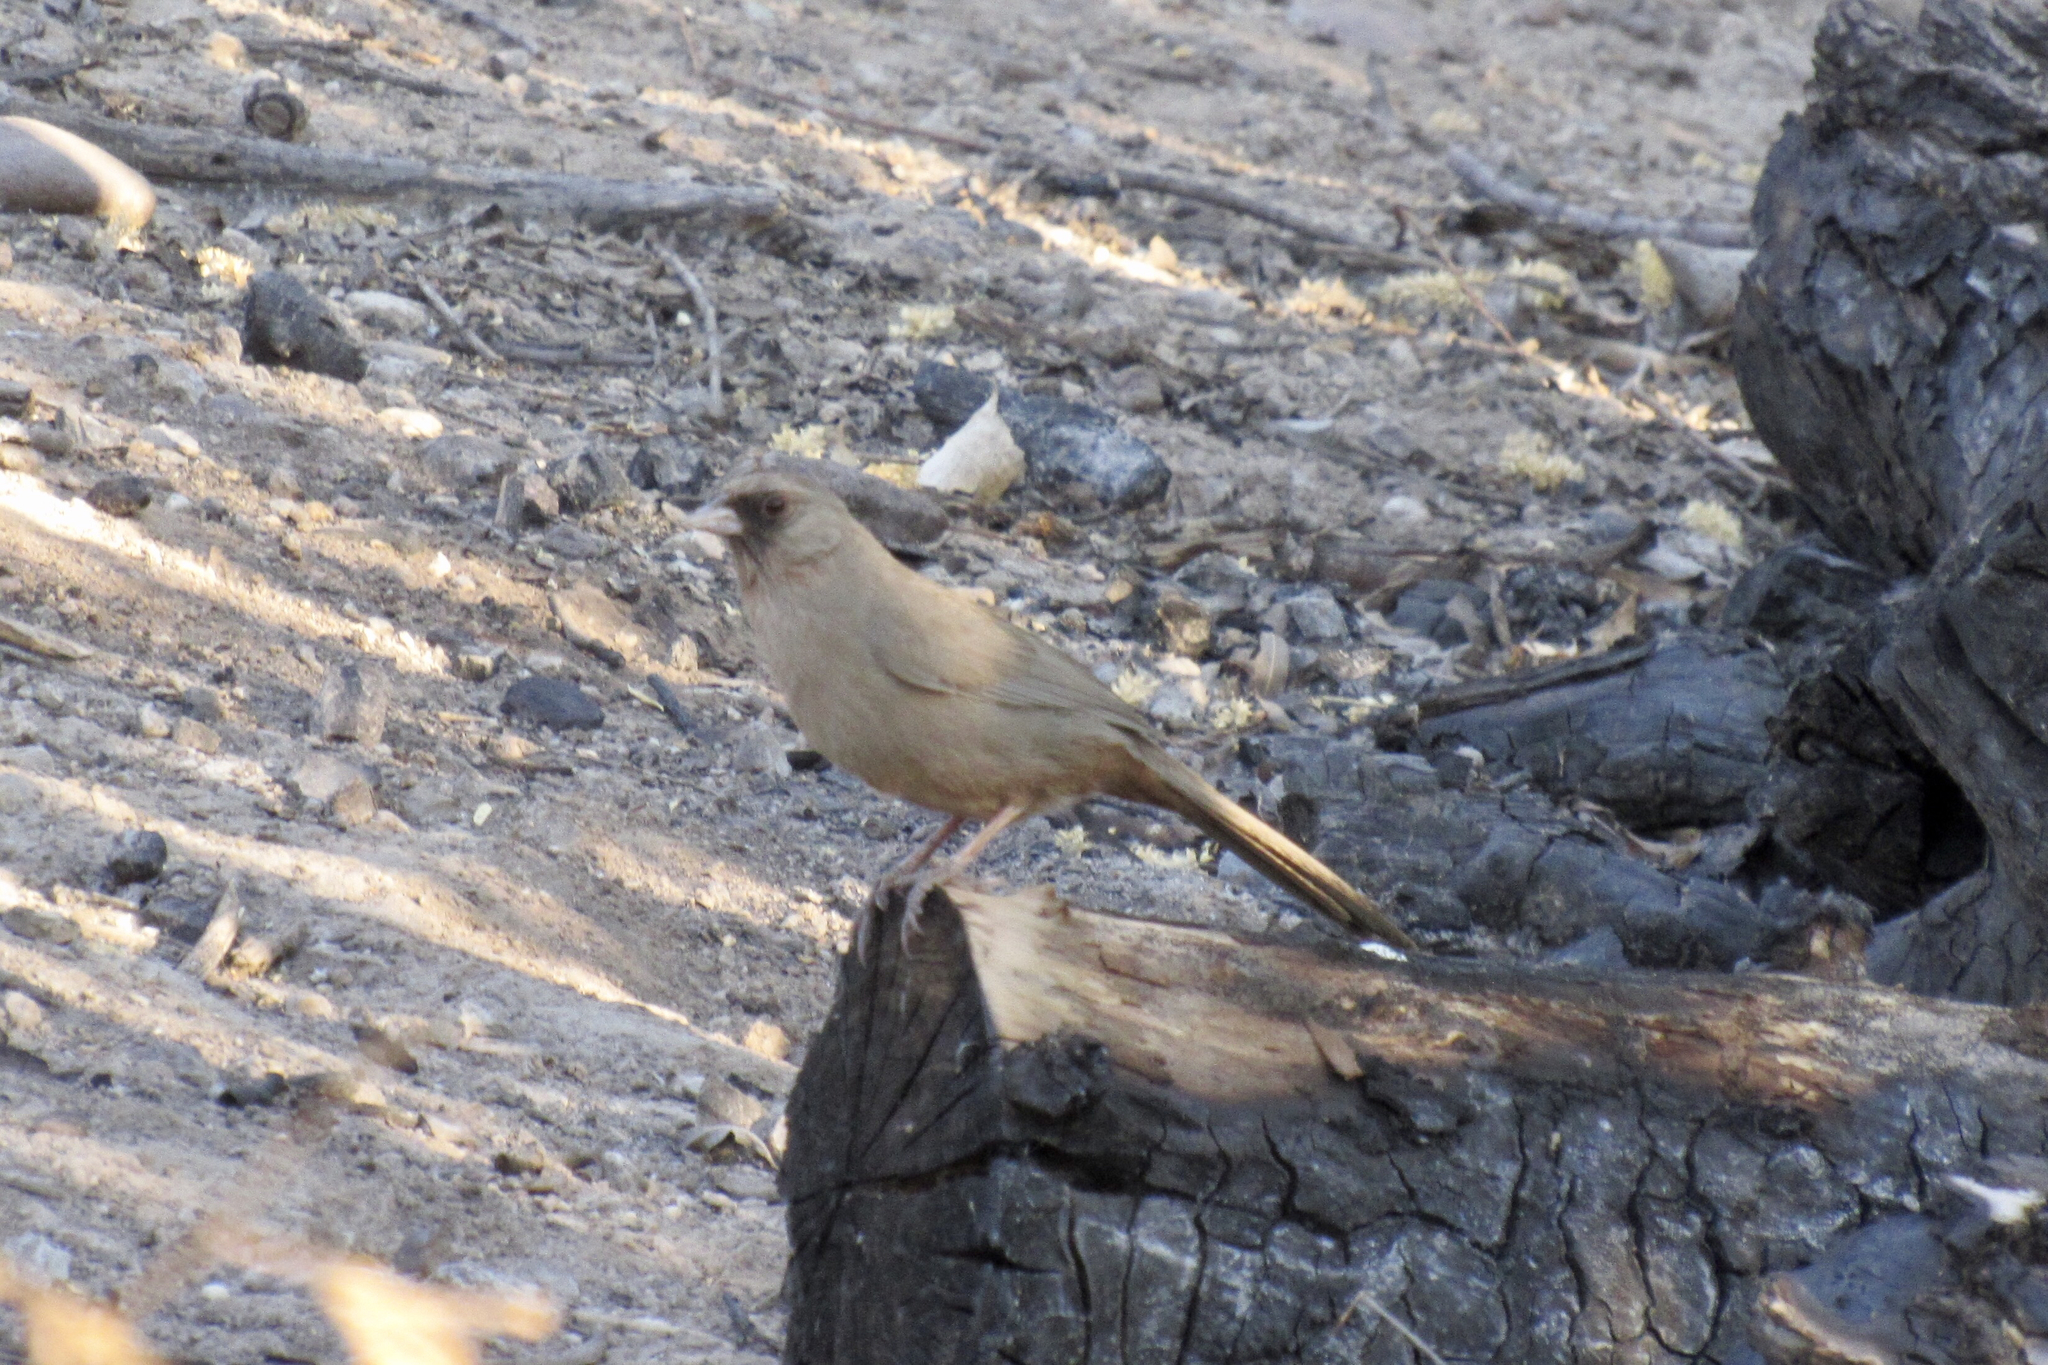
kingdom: Animalia
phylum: Chordata
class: Aves
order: Passeriformes
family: Passerellidae
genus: Melozone
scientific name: Melozone aberti
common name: Abert's towhee
